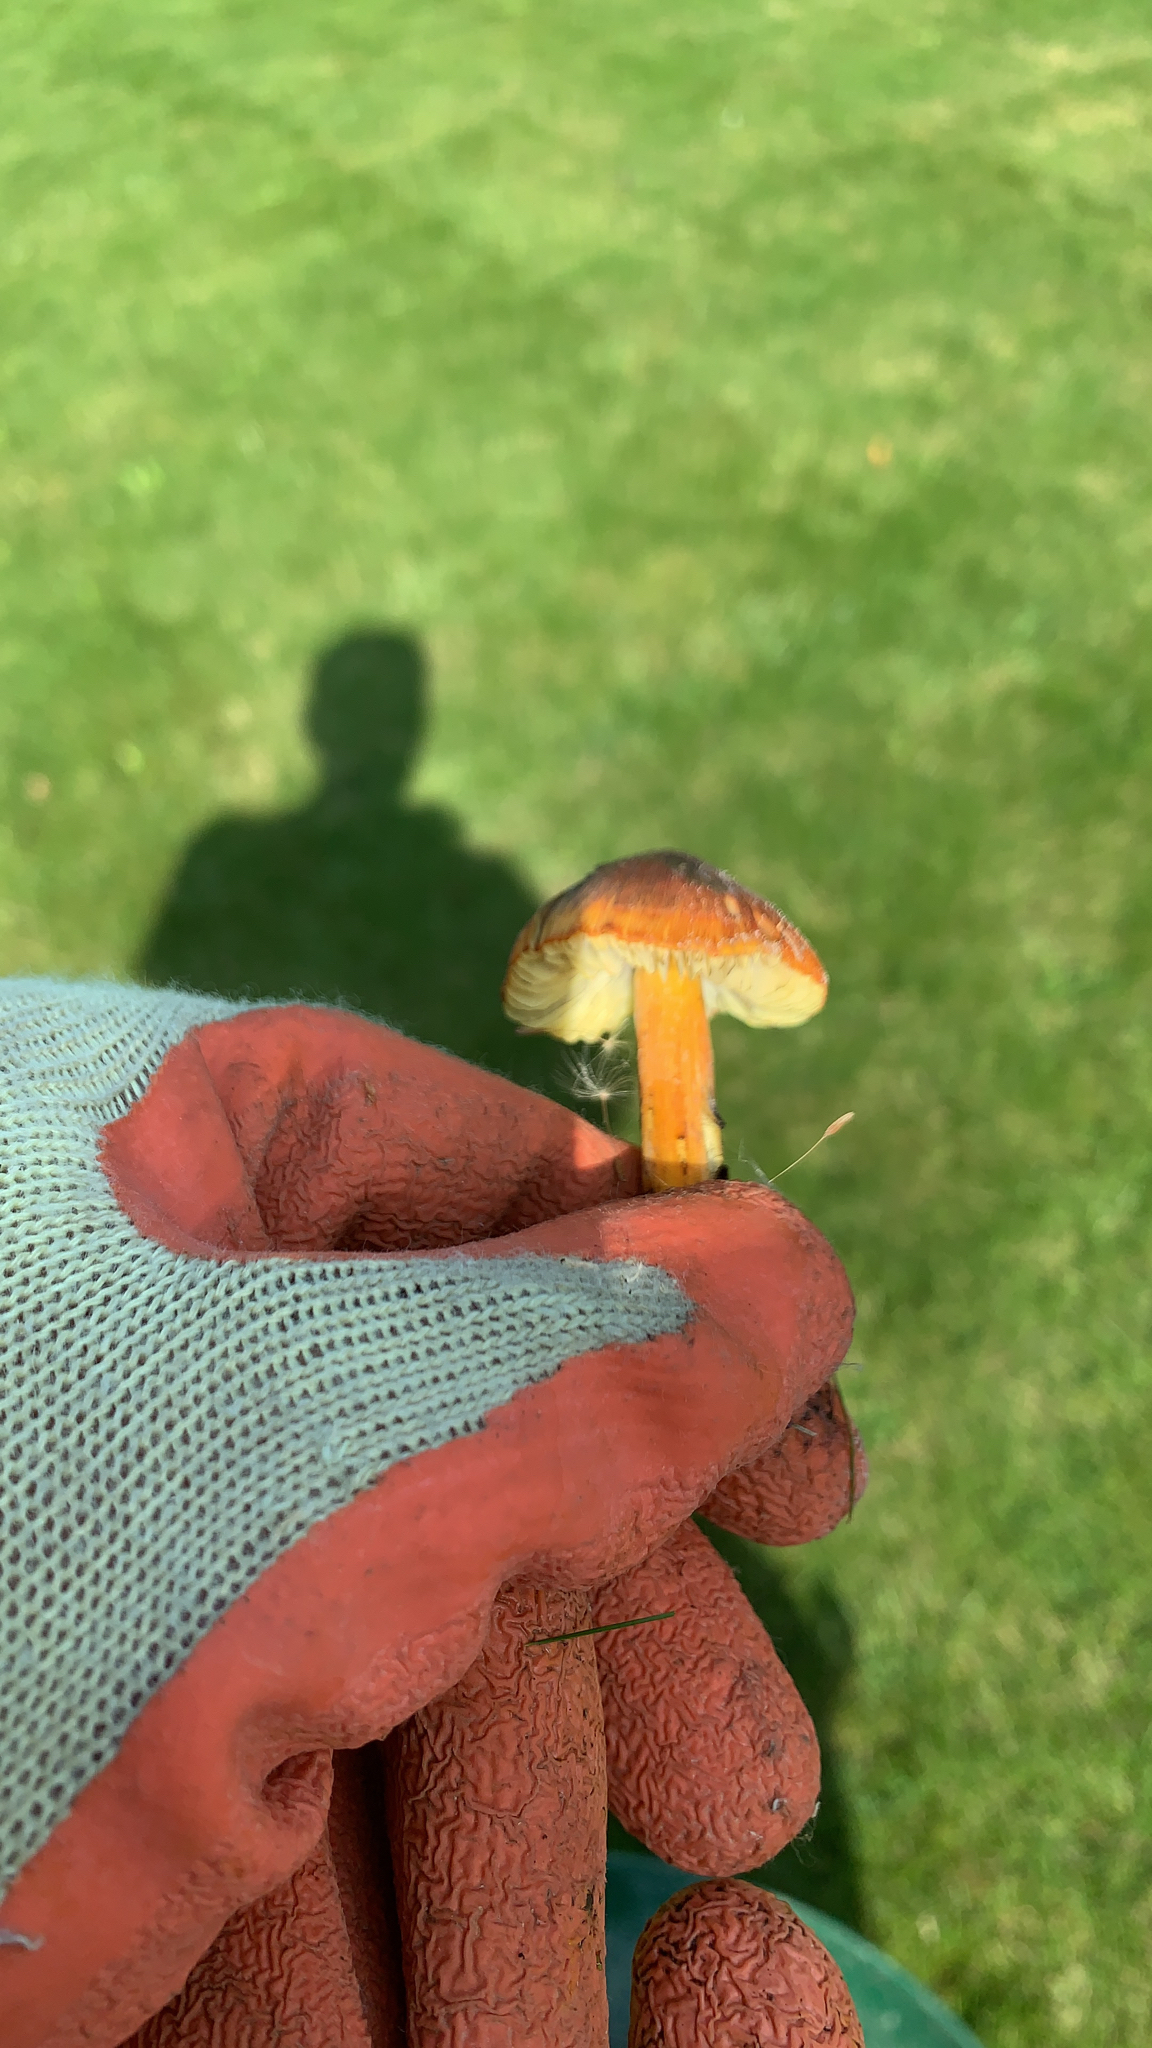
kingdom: Fungi
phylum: Basidiomycota
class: Agaricomycetes
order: Agaricales
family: Hygrophoraceae
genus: Hygrocybe
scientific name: Hygrocybe conica
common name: Blackening wax-cap
